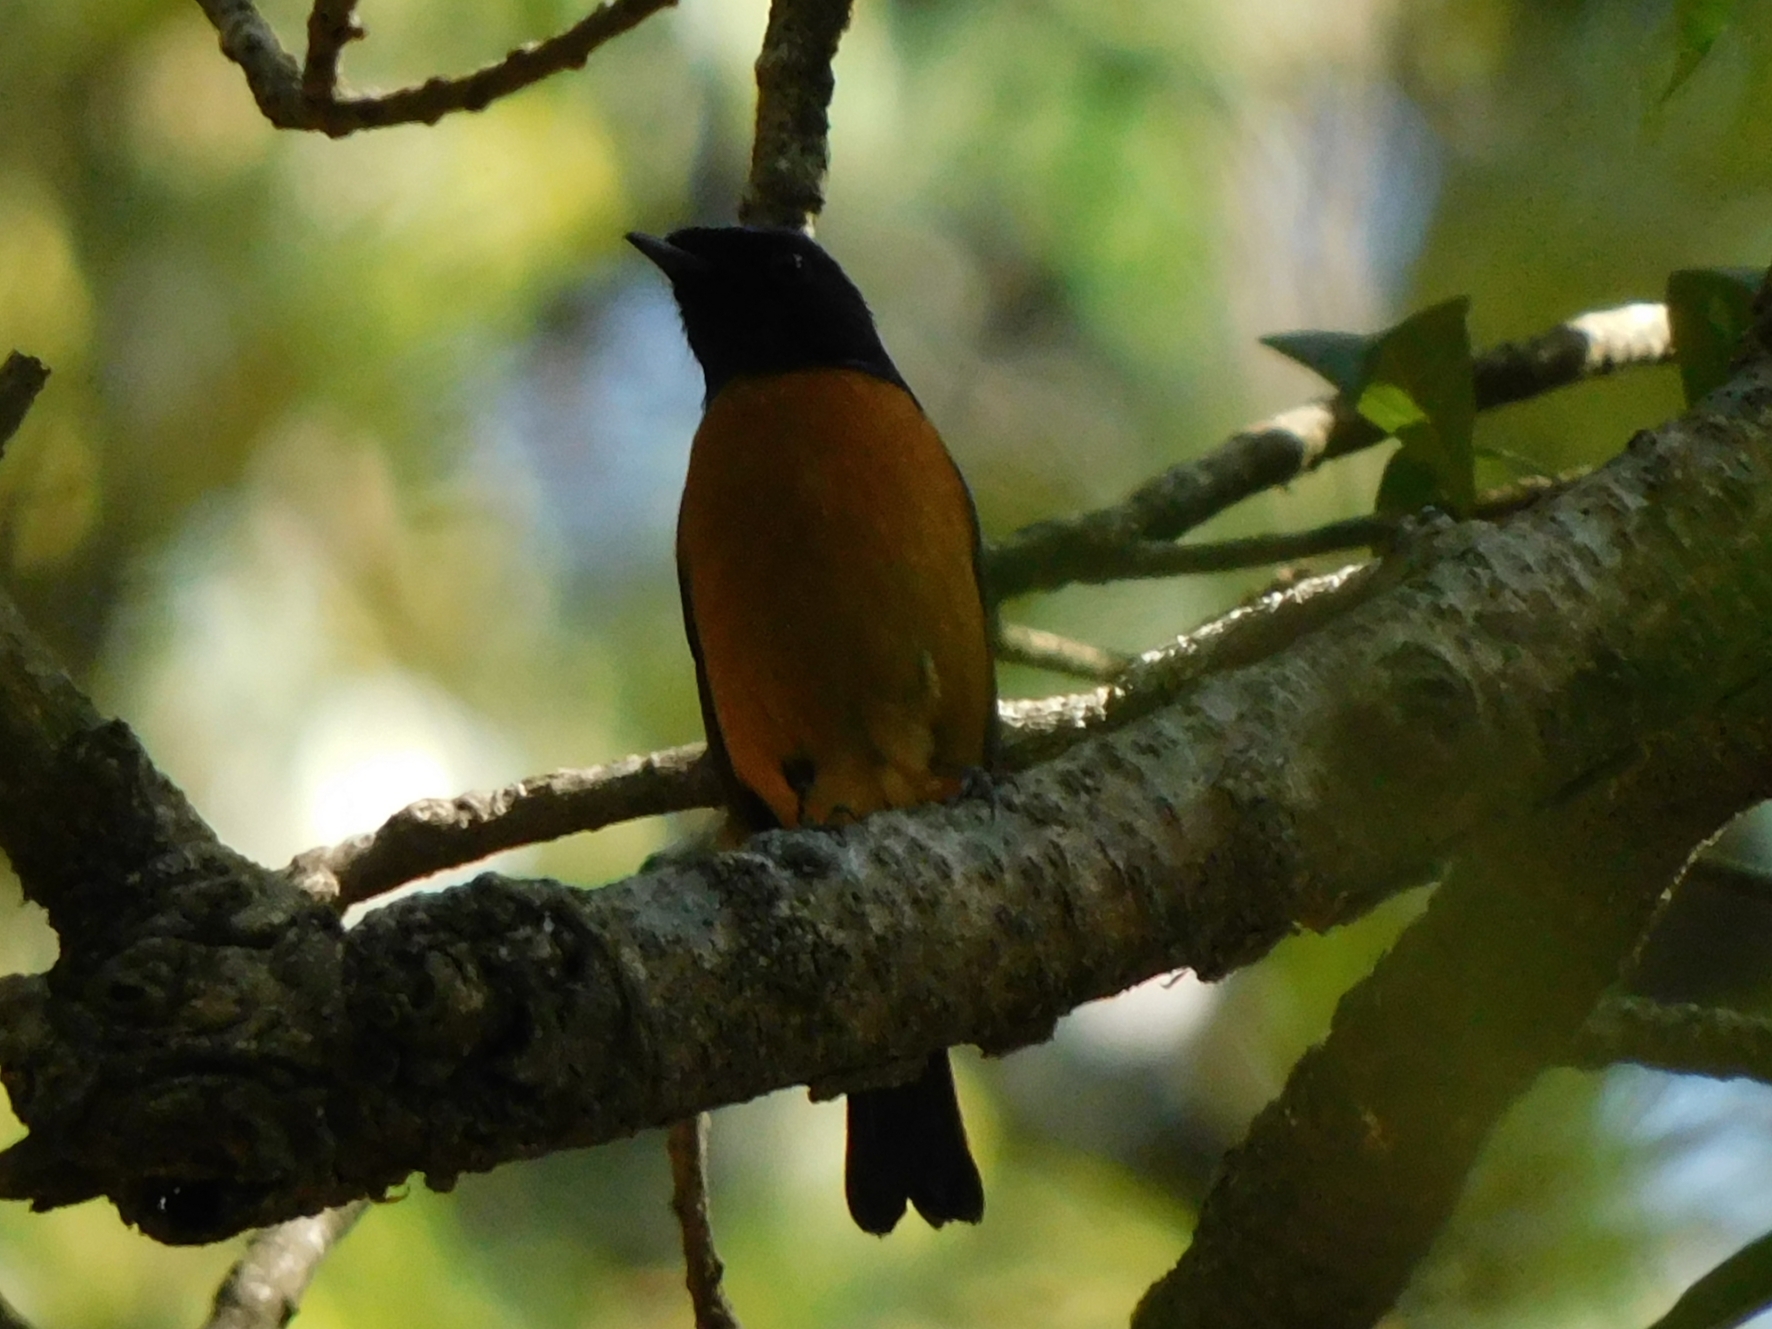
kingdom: Animalia
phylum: Chordata
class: Aves
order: Passeriformes
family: Muscicapidae
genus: Niltava
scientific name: Niltava sundara
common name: Rufous-bellied niltava
